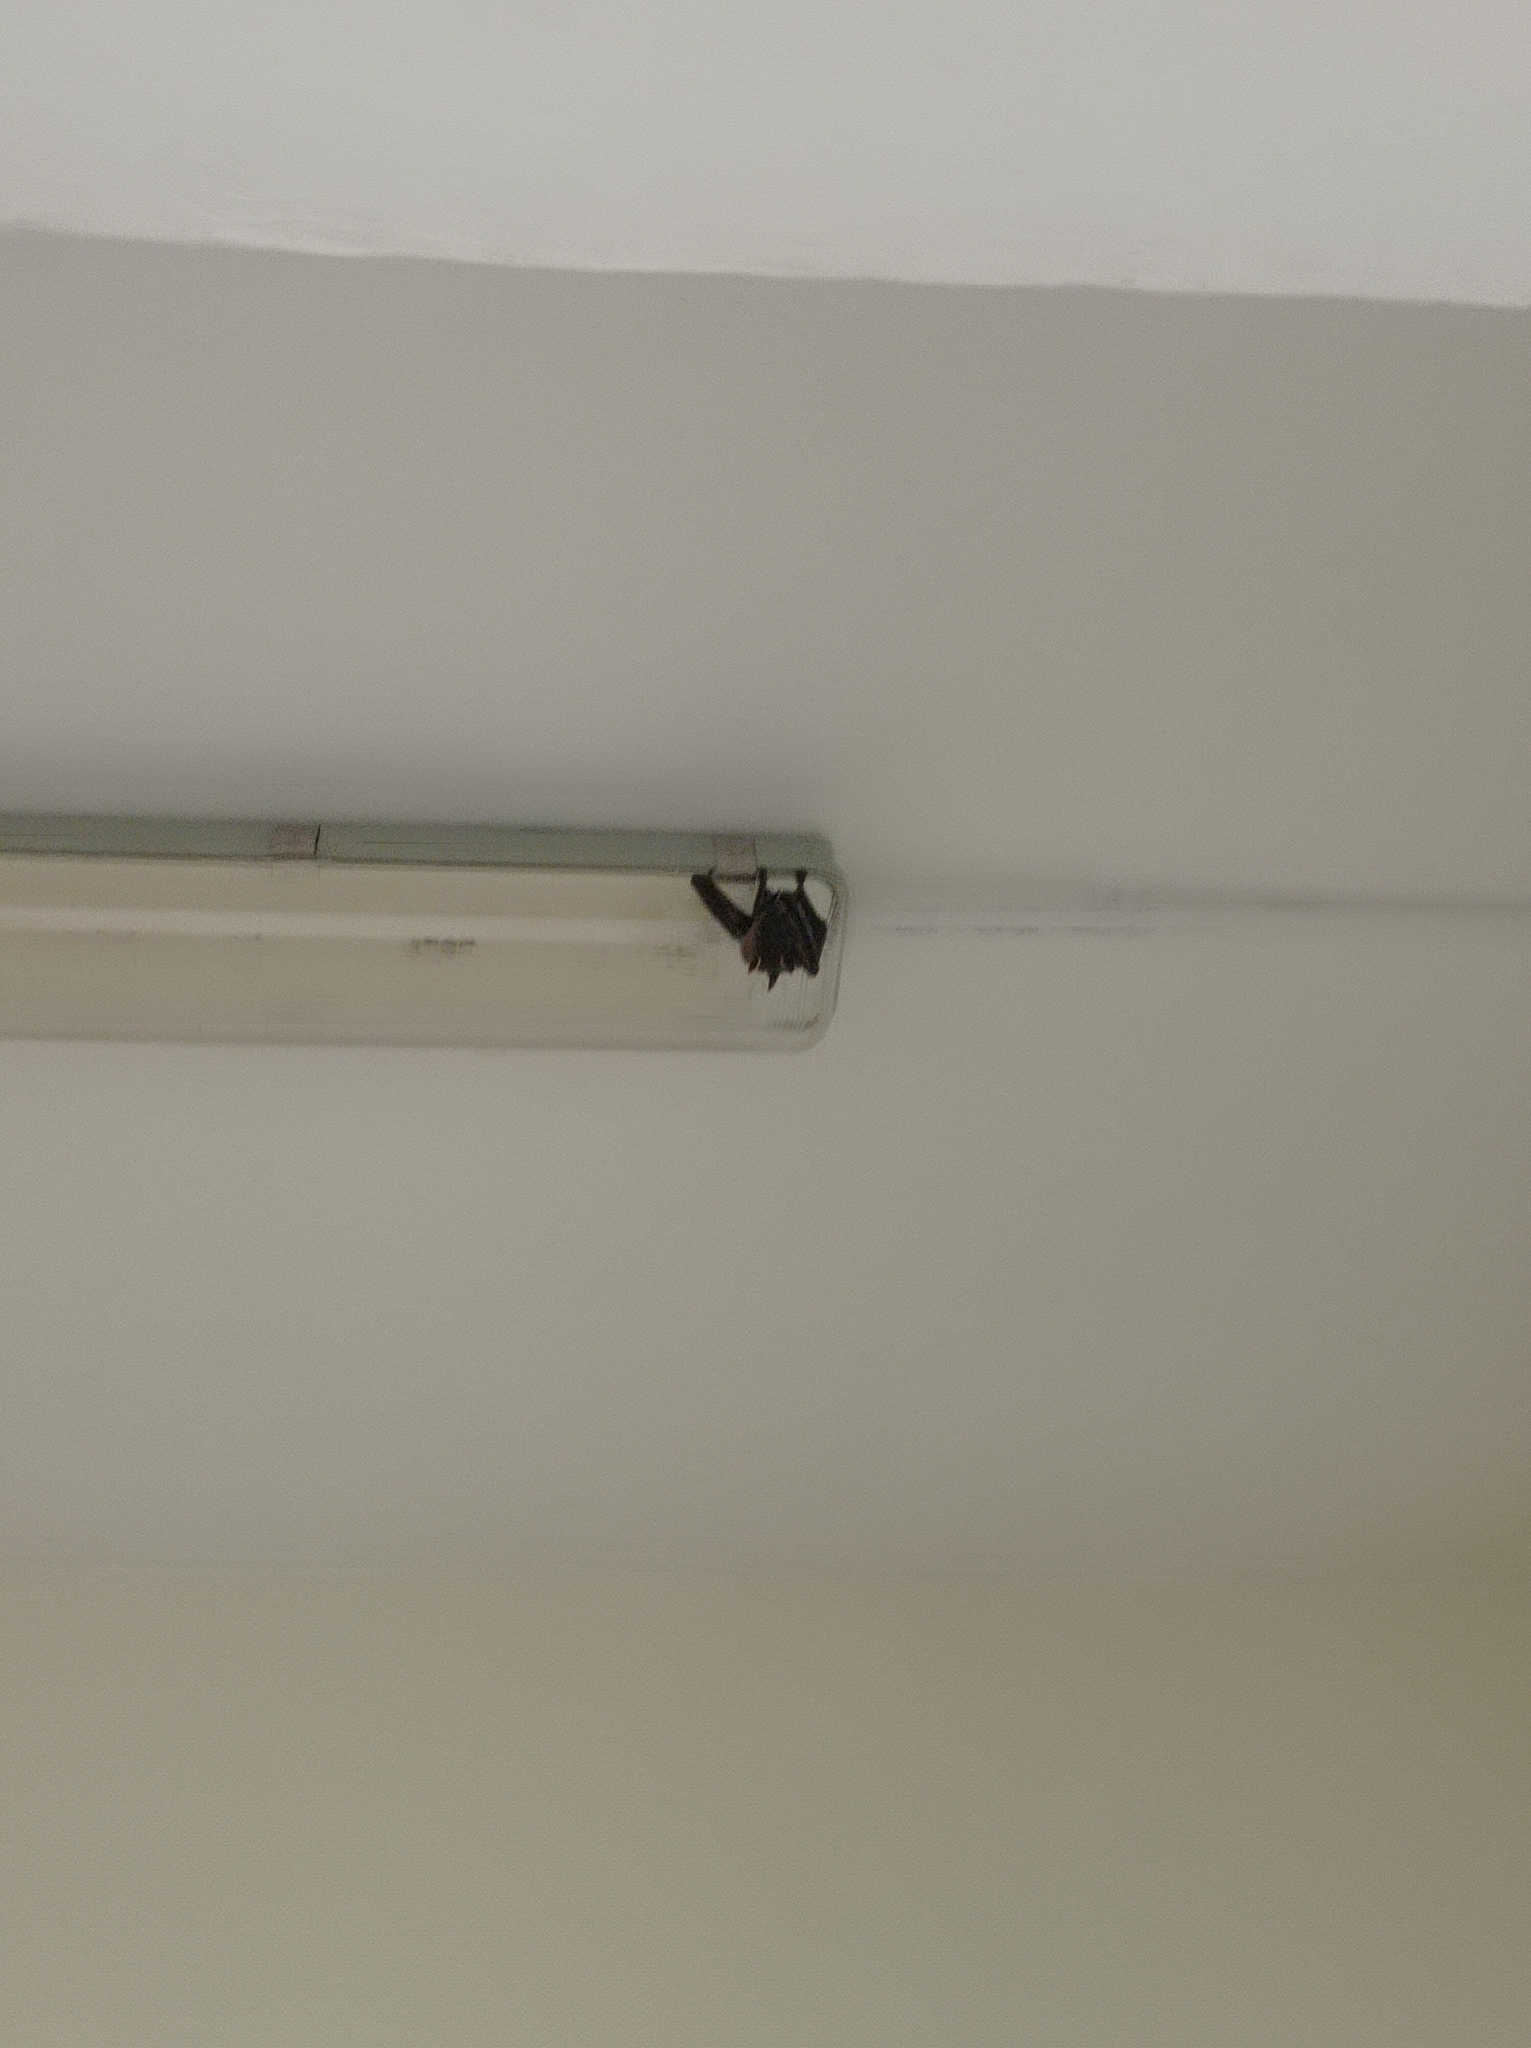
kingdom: Animalia
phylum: Chordata
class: Mammalia
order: Chiroptera
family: Pteropodidae
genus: Cynopterus
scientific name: Cynopterus sphinx
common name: Greater short-nosed fruit bat
